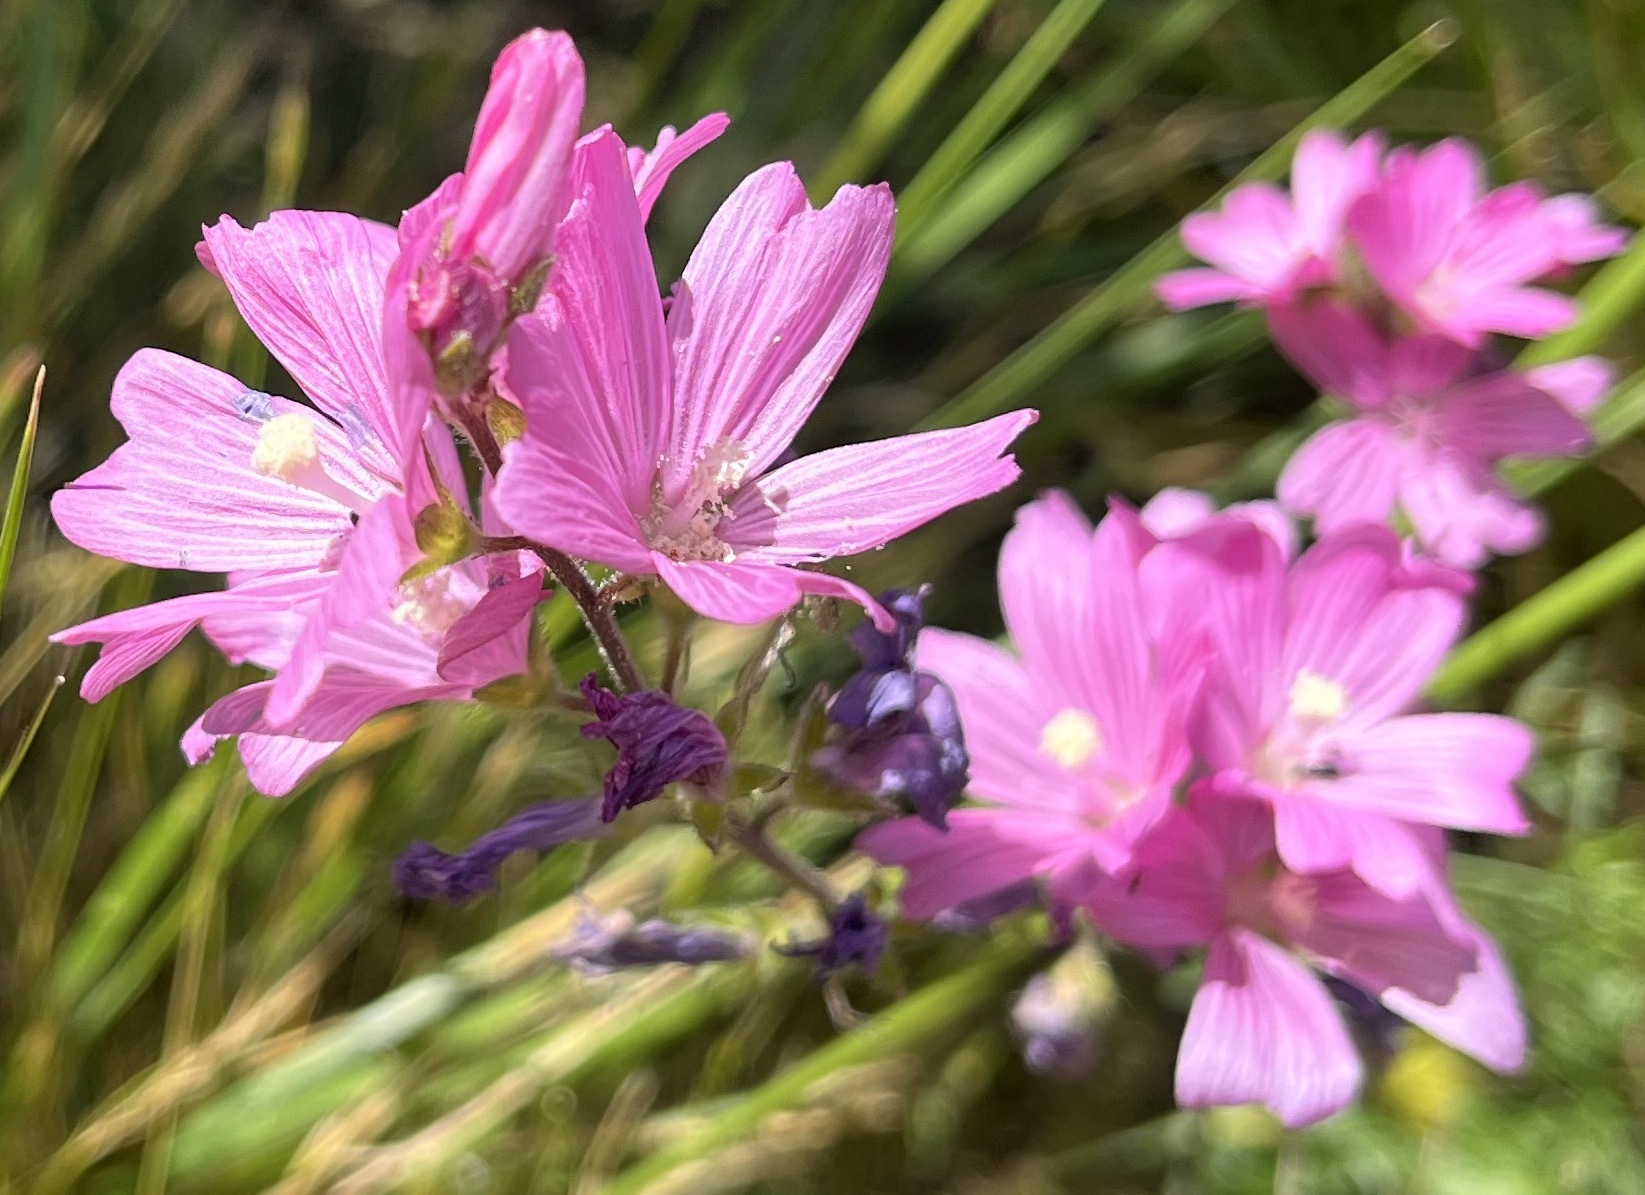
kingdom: Plantae
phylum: Tracheophyta
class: Magnoliopsida
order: Malvales
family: Malvaceae
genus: Sidalcea
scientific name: Sidalcea malviflora
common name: Greek mallow
